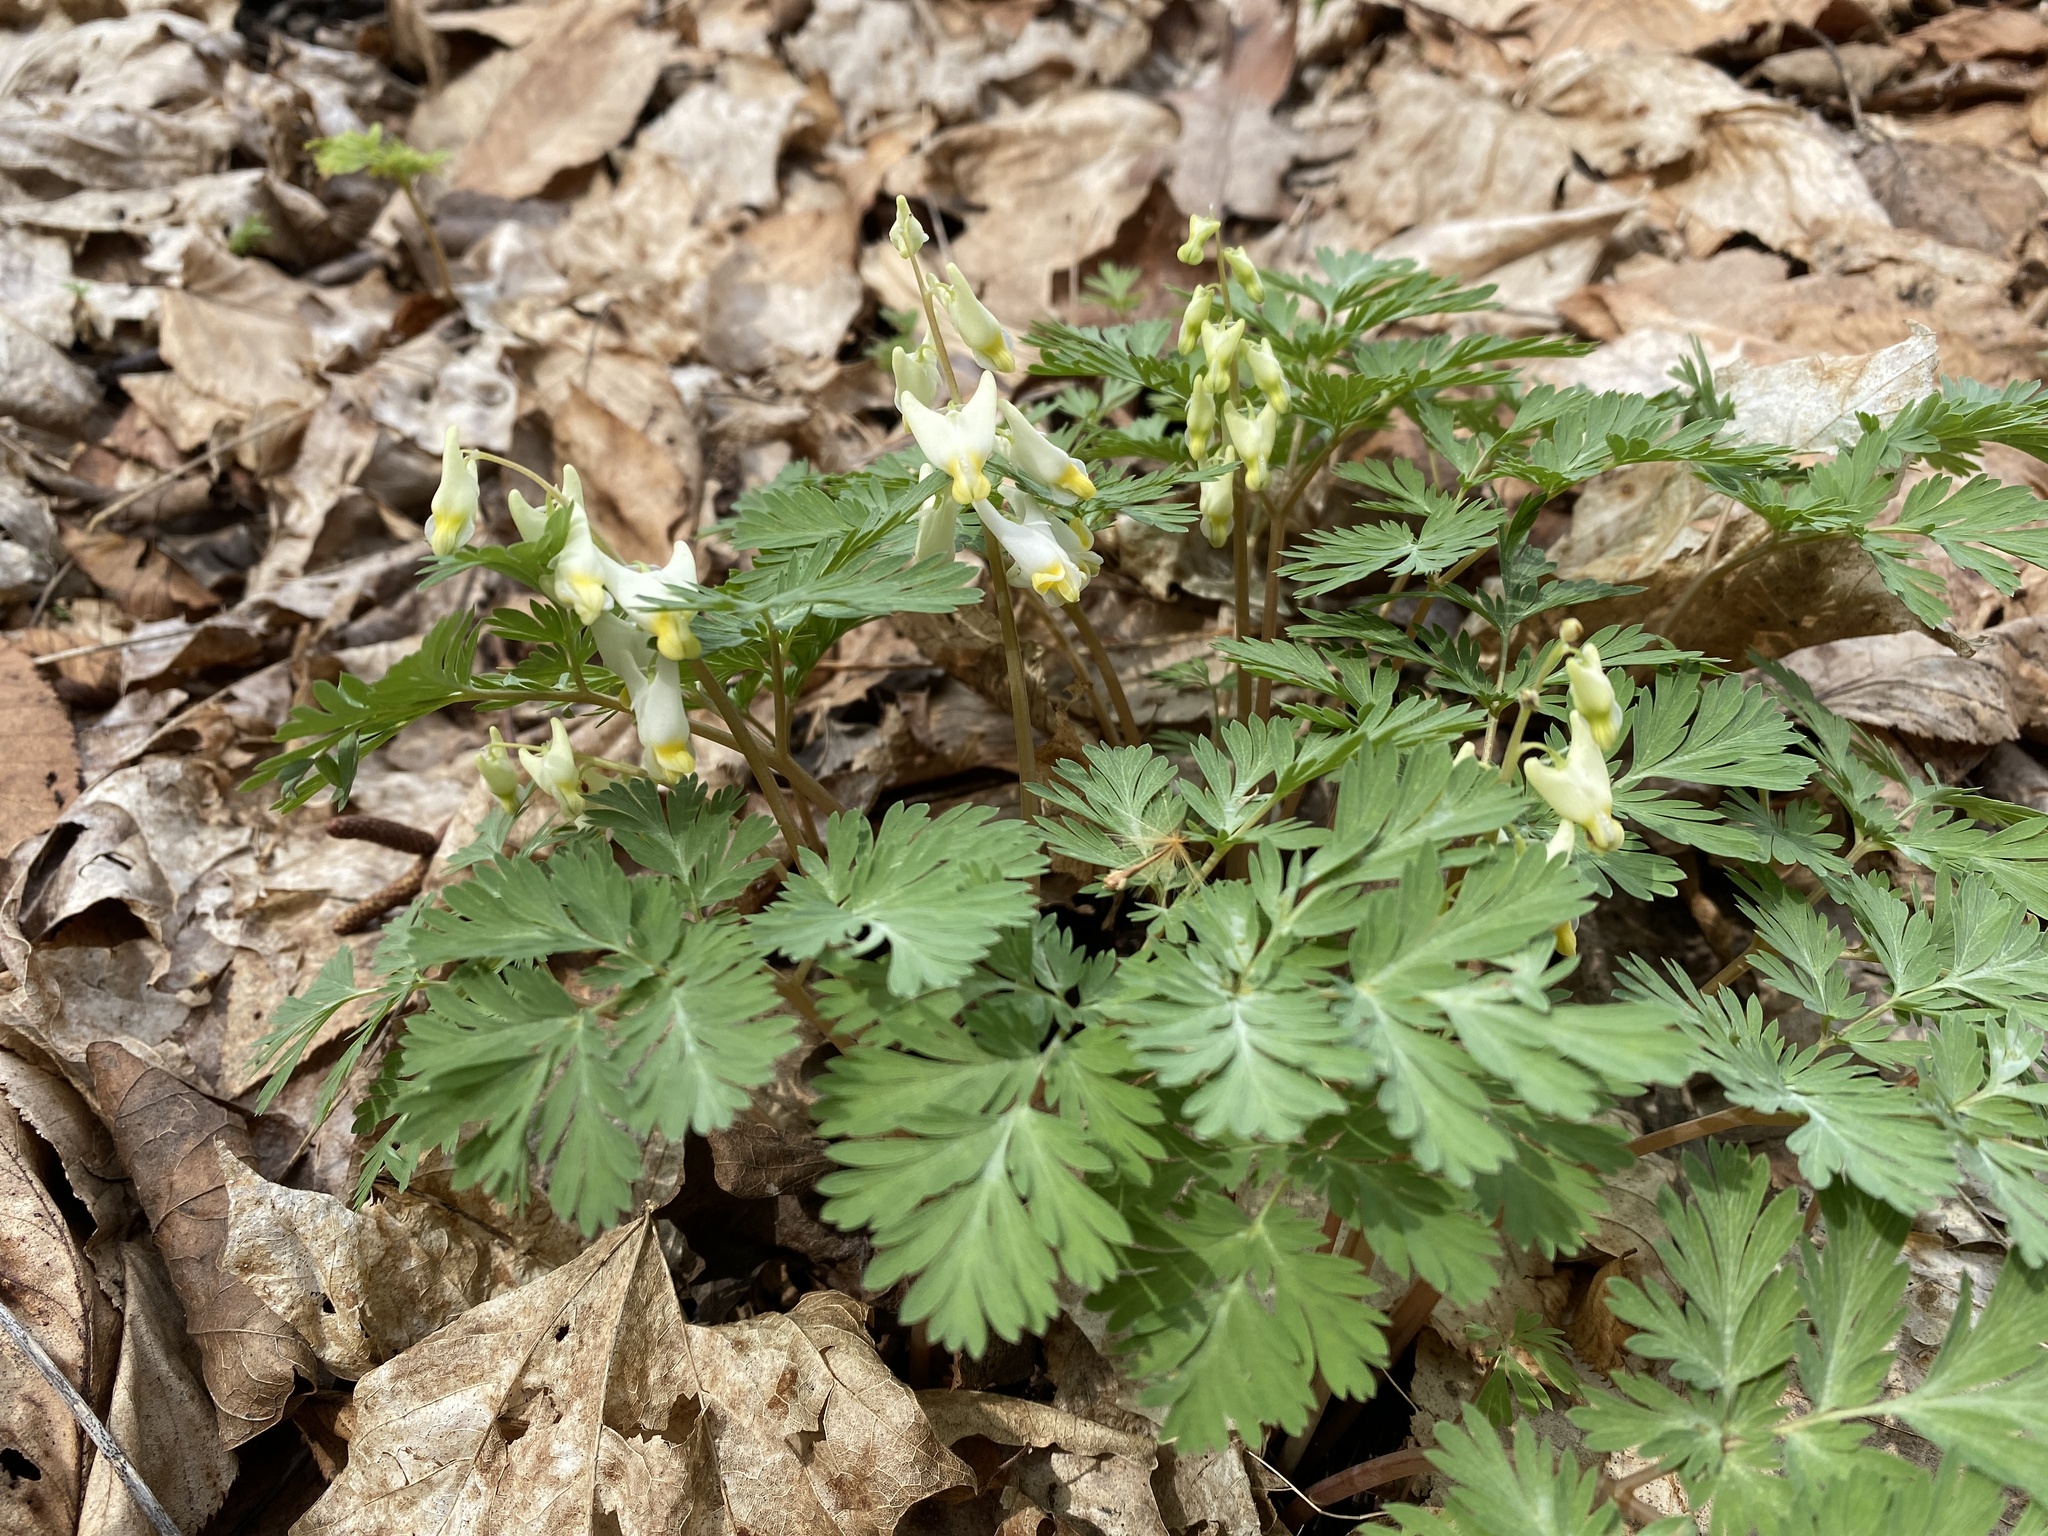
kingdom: Plantae
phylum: Tracheophyta
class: Magnoliopsida
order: Ranunculales
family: Papaveraceae
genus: Dicentra
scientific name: Dicentra cucullaria
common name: Dutchman's breeches
